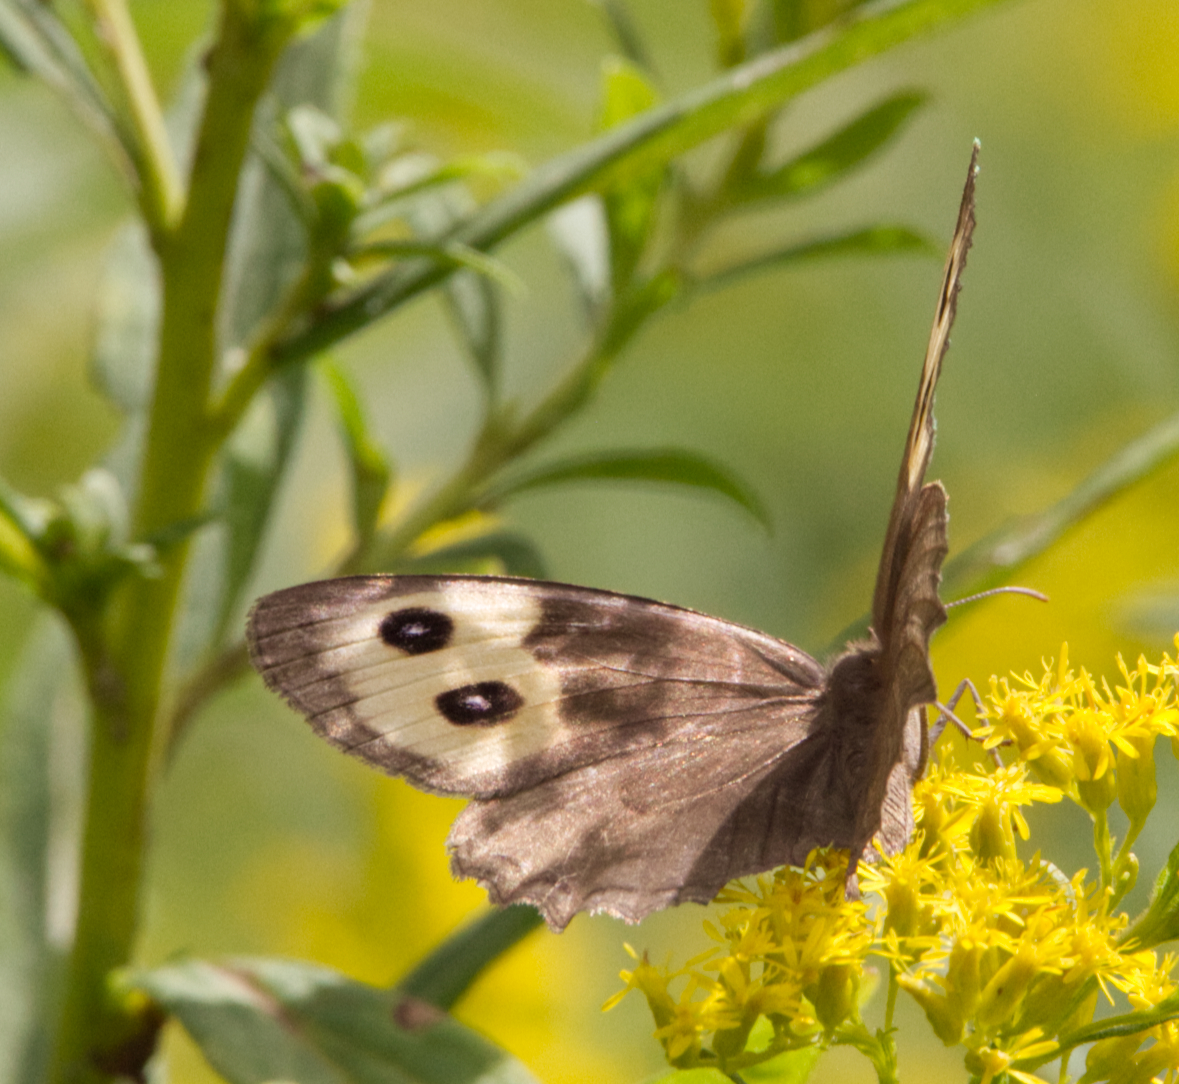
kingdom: Animalia
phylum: Arthropoda
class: Insecta
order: Lepidoptera
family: Nymphalidae
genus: Cercyonis
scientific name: Cercyonis pegala
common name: Common wood-nymph
